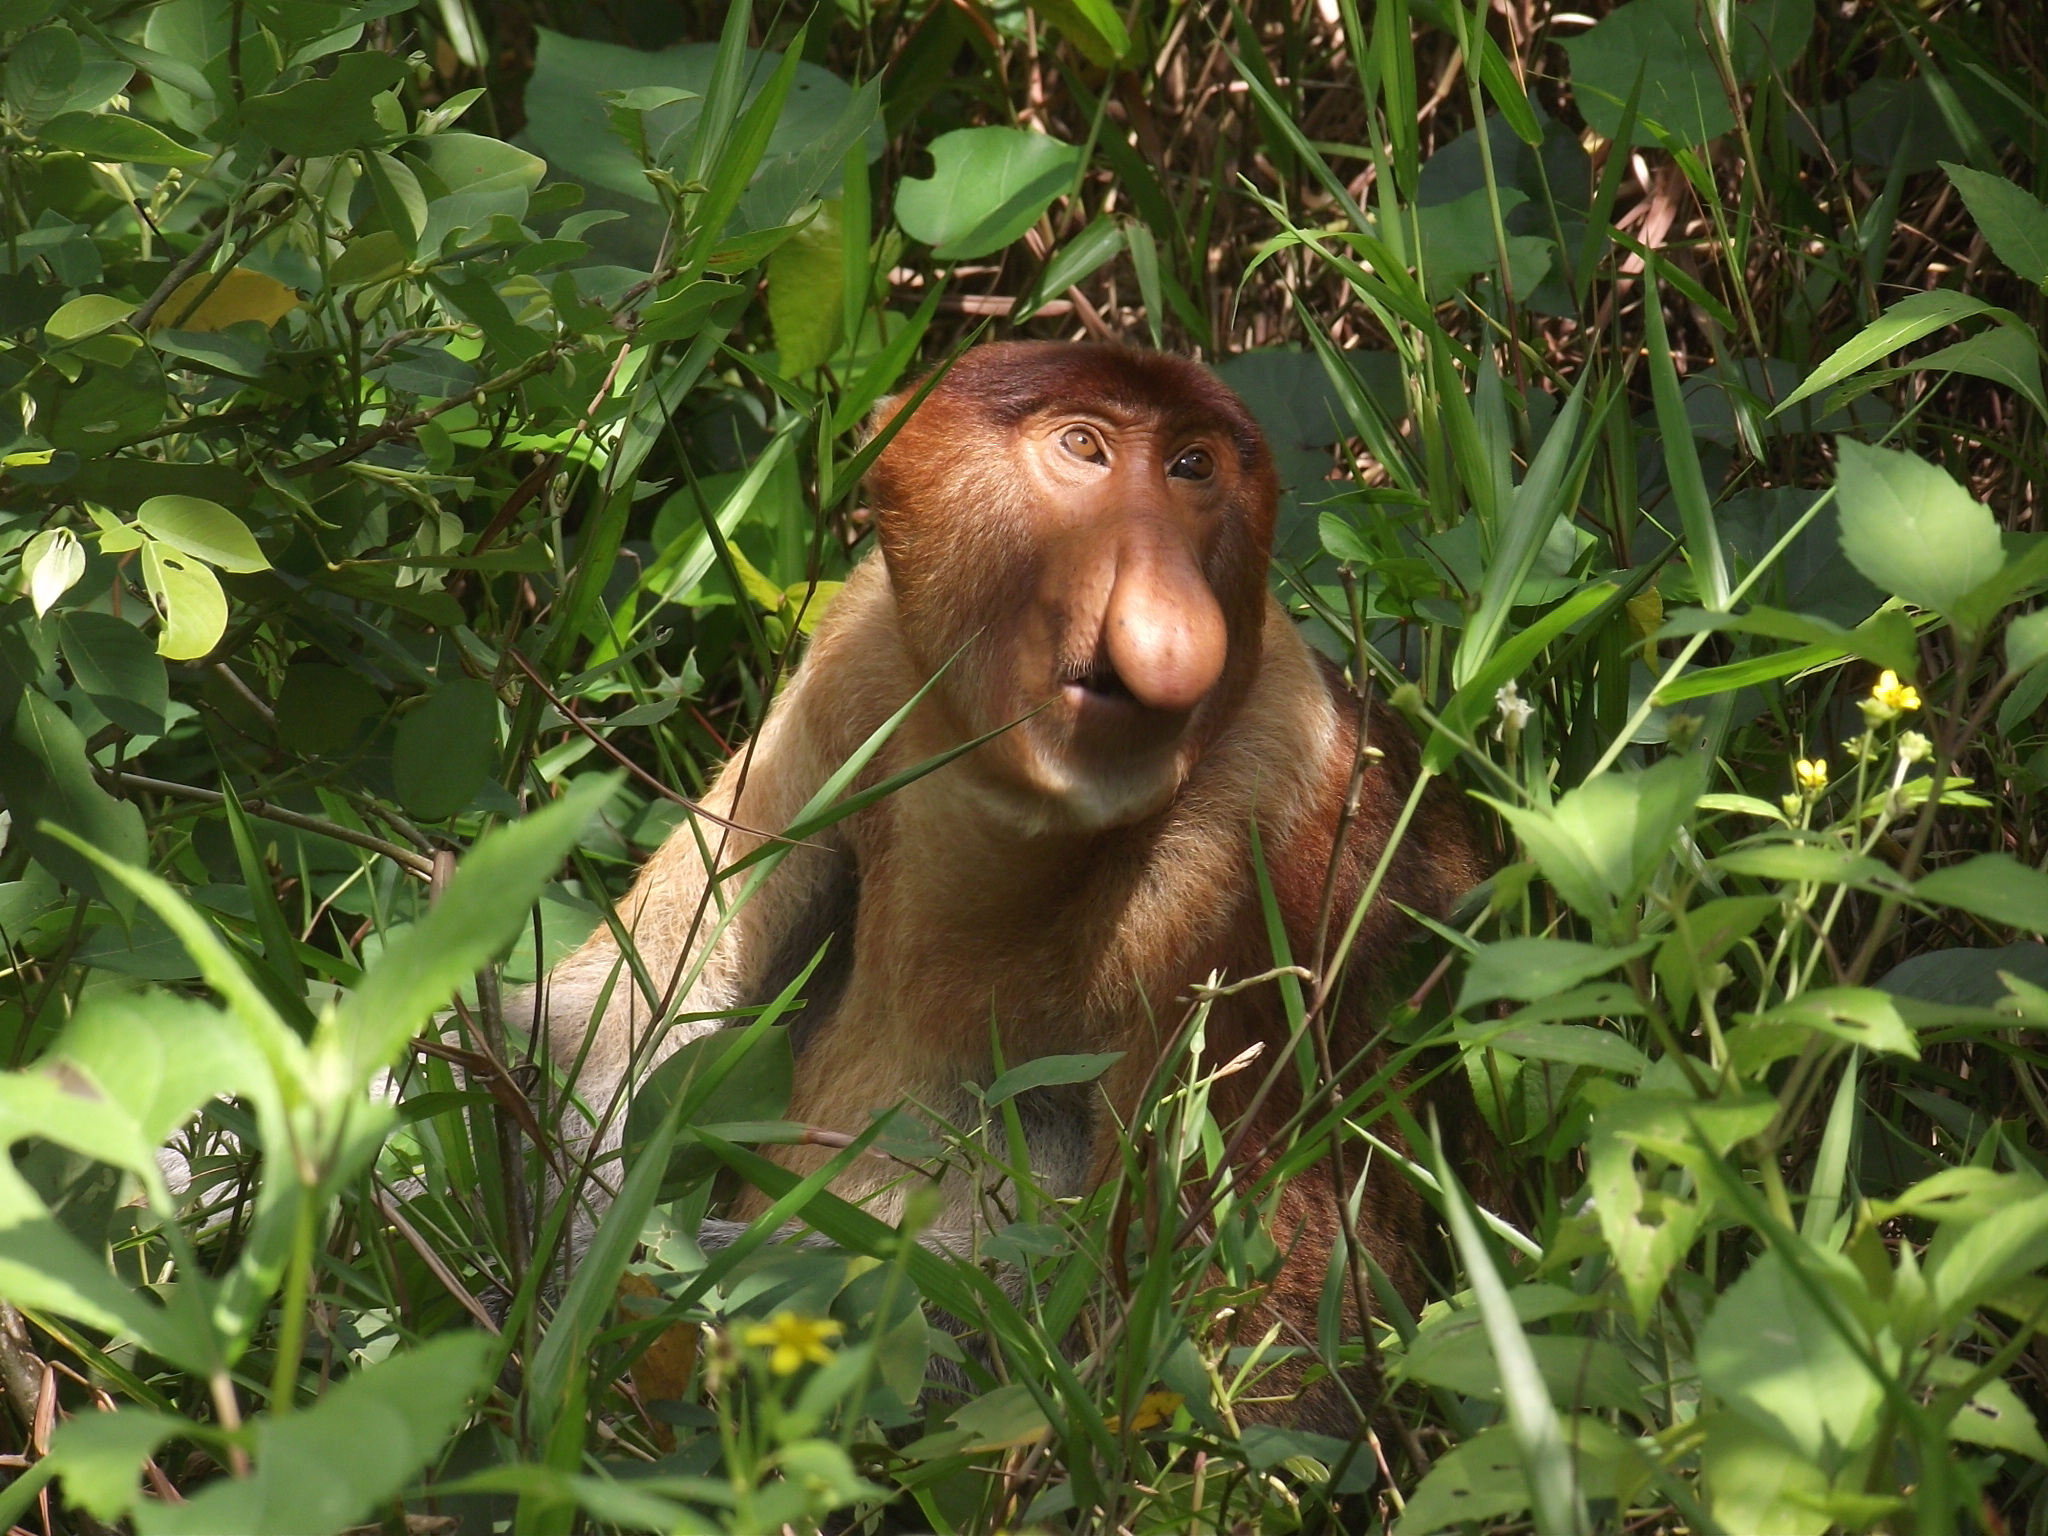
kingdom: Animalia
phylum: Chordata
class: Mammalia
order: Primates
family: Cercopithecidae
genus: Nasalis
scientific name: Nasalis larvatus
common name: Proboscis monkey
